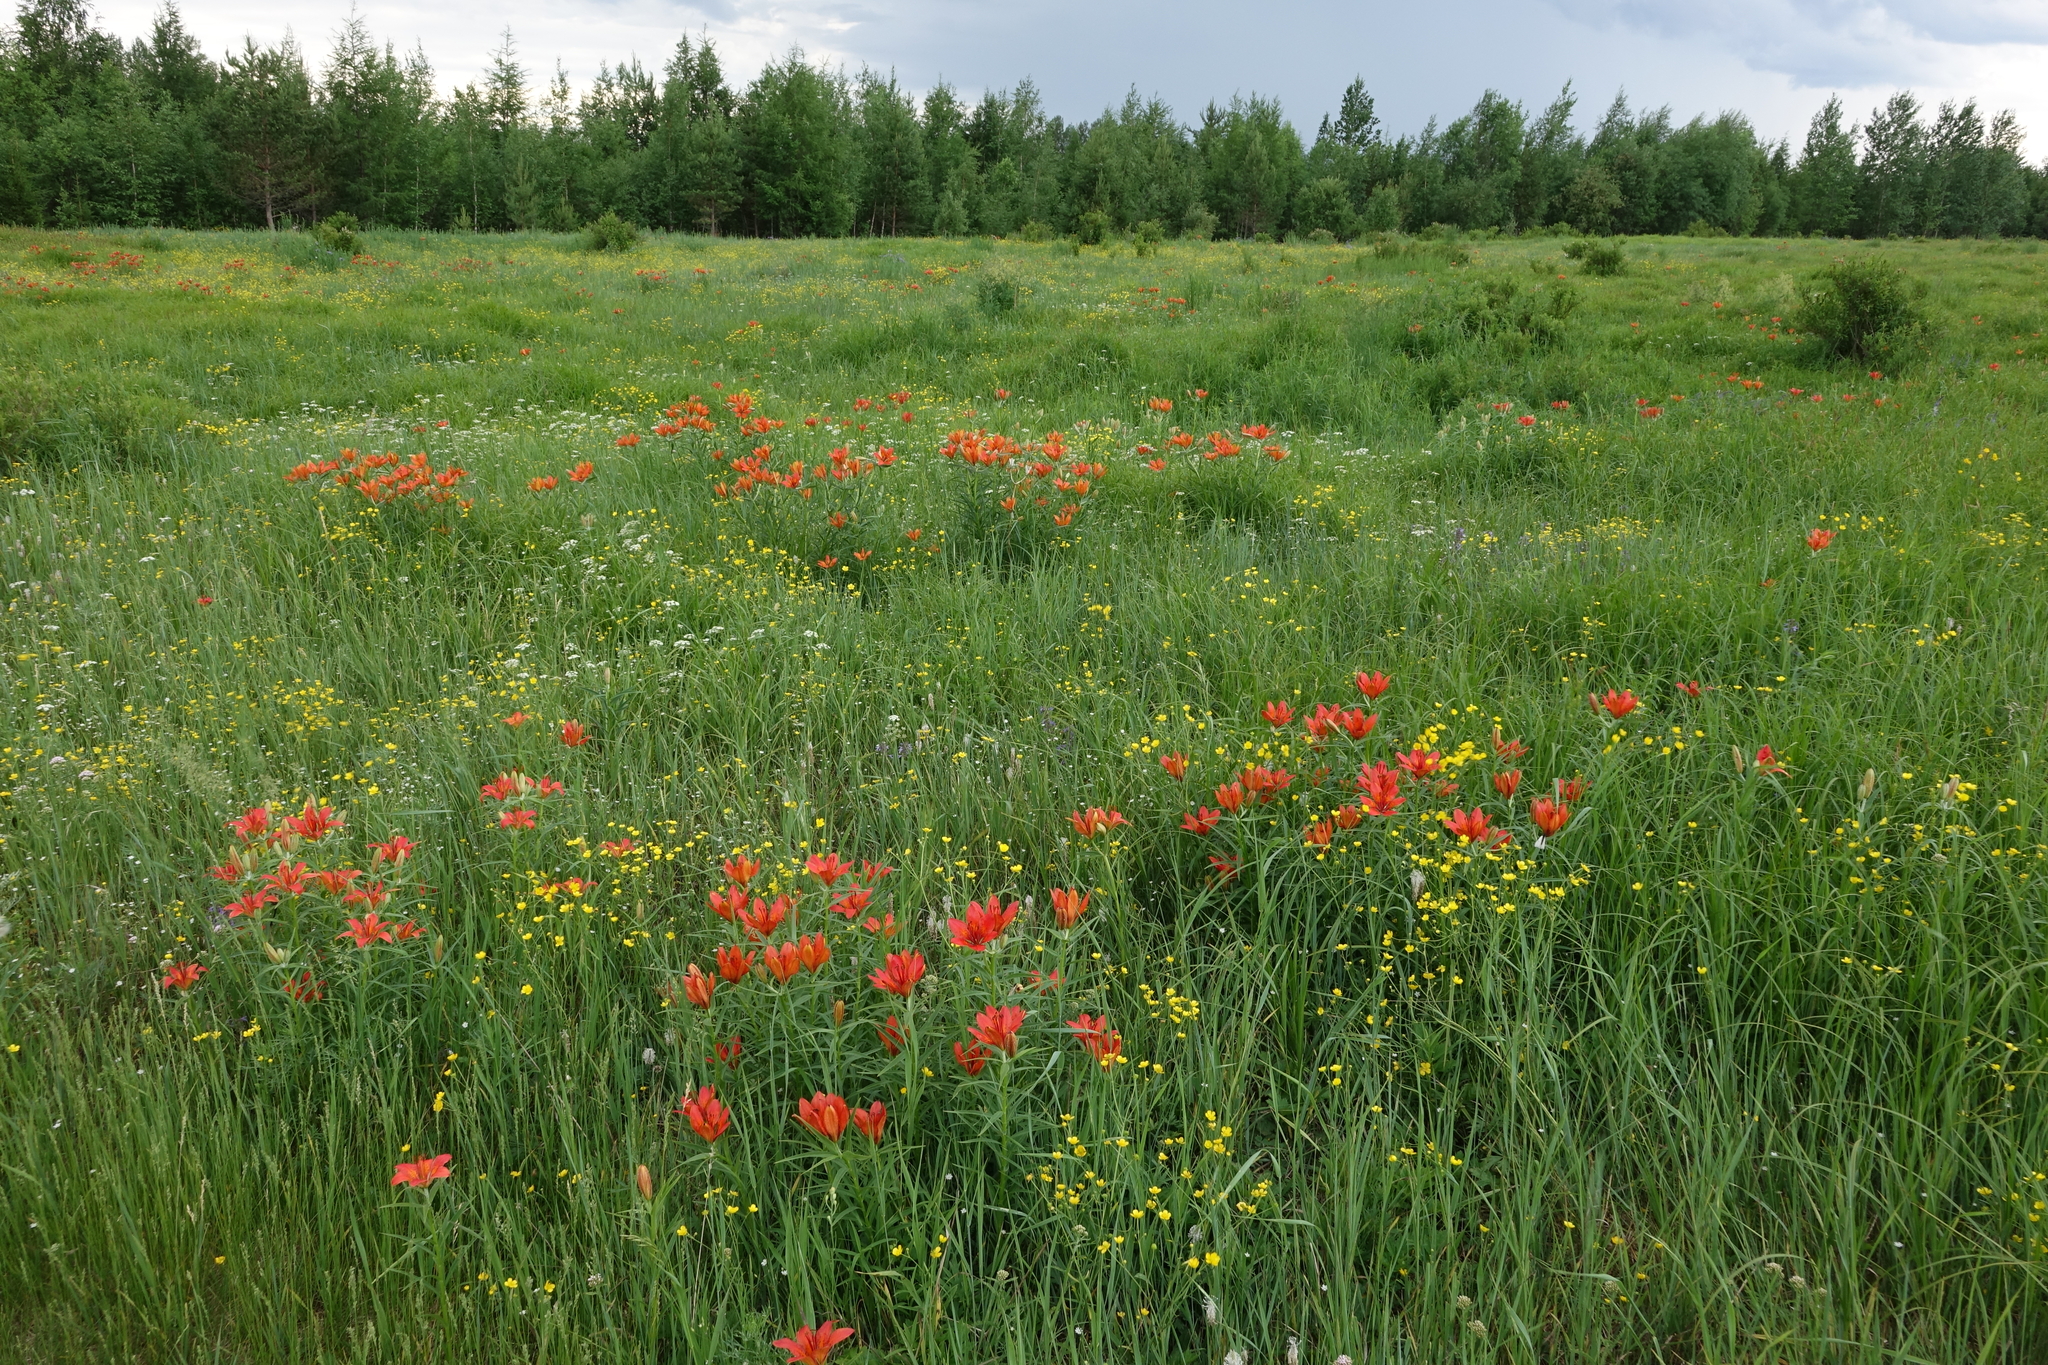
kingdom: Plantae
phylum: Tracheophyta
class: Liliopsida
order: Liliales
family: Liliaceae
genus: Lilium
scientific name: Lilium pensylvanicum
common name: Candlestick lily
